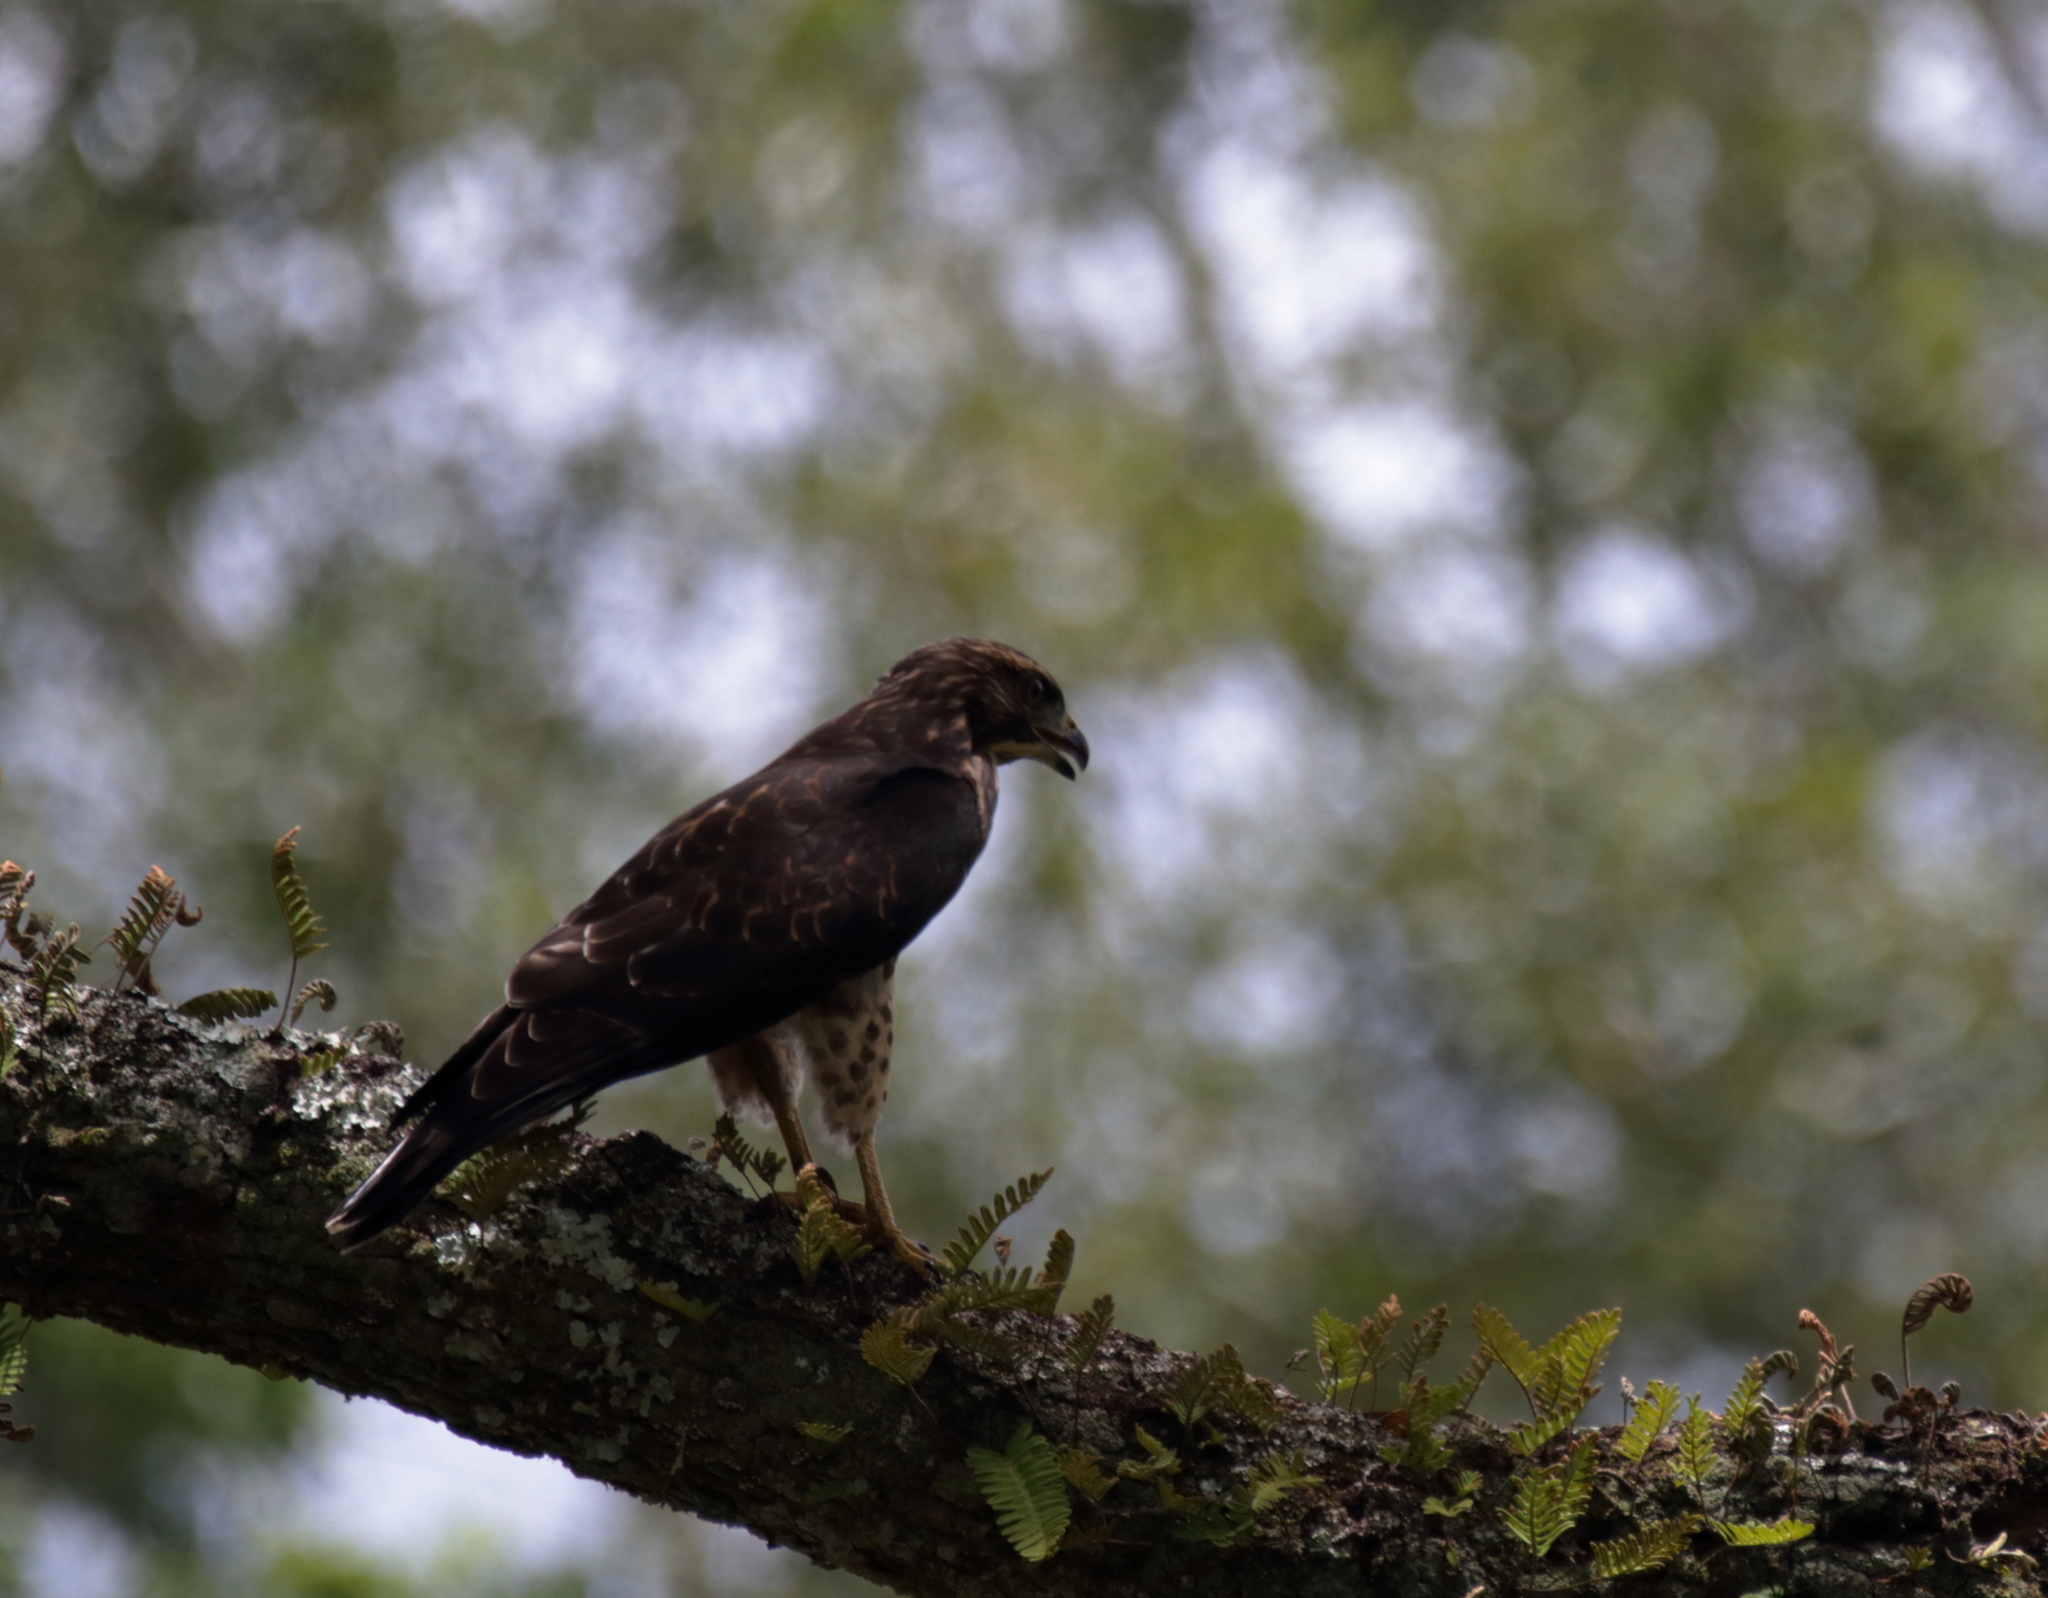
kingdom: Animalia
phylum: Chordata
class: Aves
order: Accipitriformes
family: Accipitridae
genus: Buteo
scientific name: Buteo platypterus
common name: Broad-winged hawk
